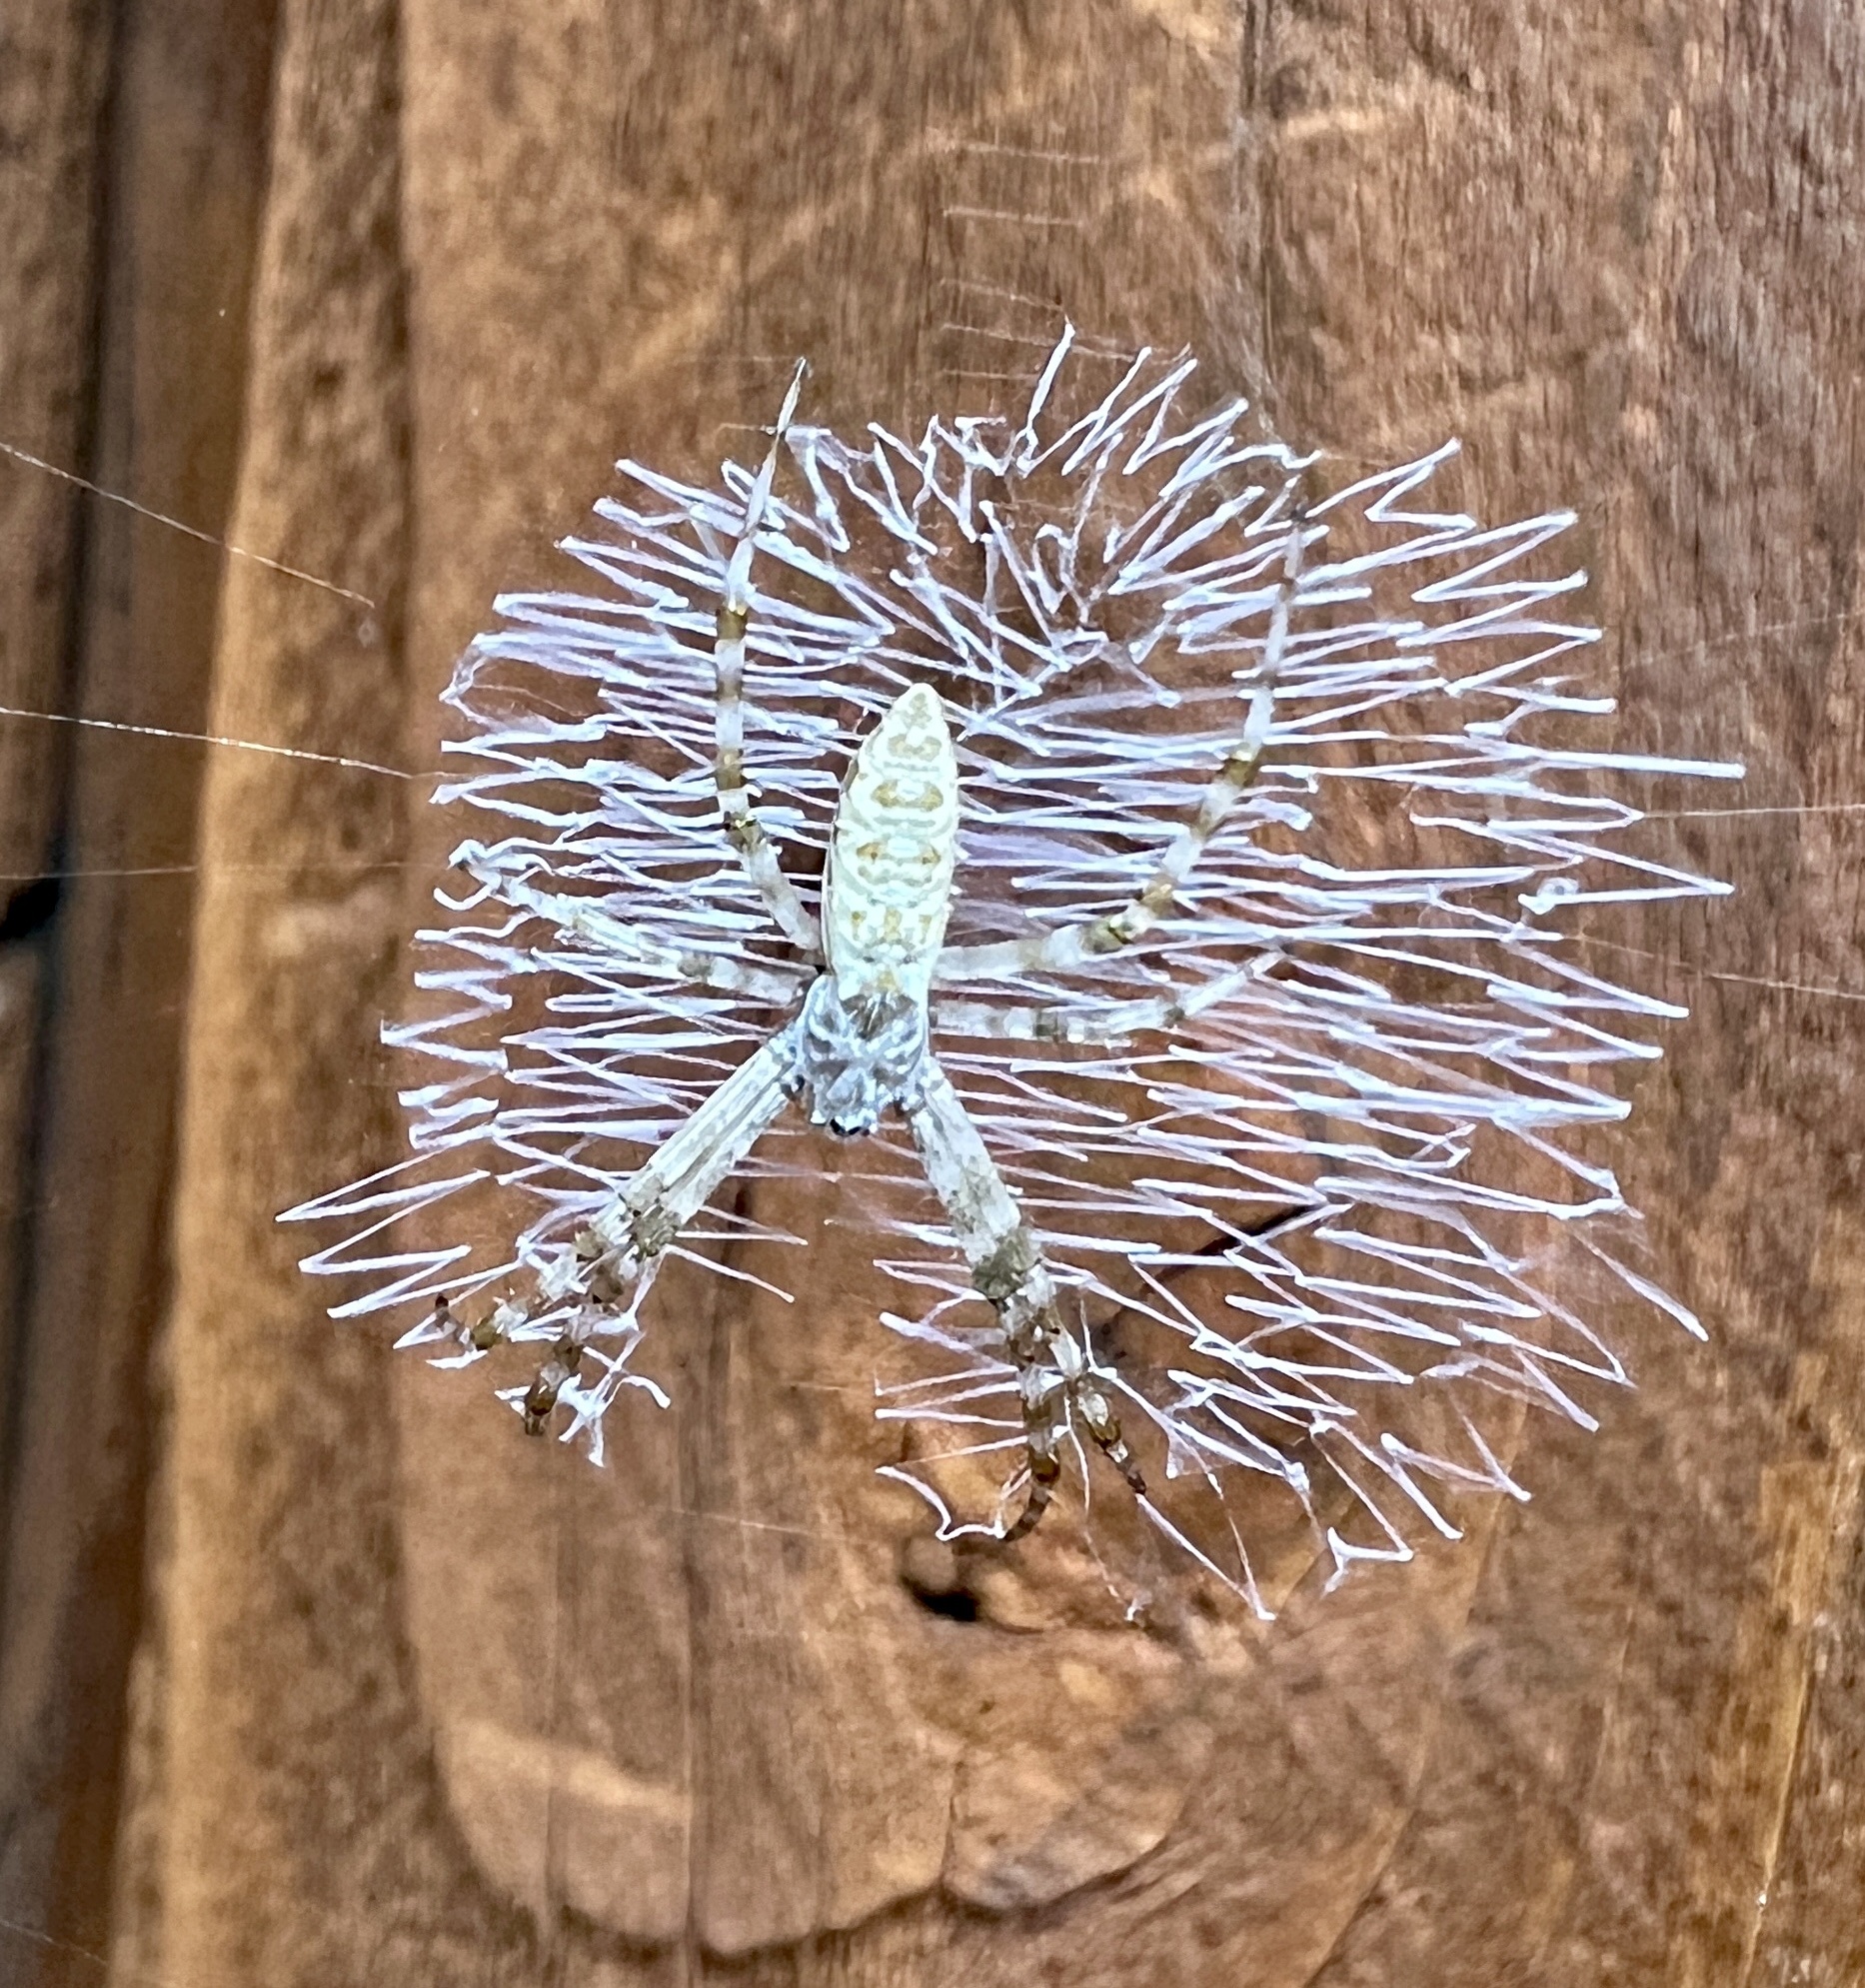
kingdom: Animalia
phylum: Arthropoda
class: Arachnida
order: Araneae
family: Araneidae
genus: Argiope
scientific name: Argiope aurantia
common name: Orb weavers
